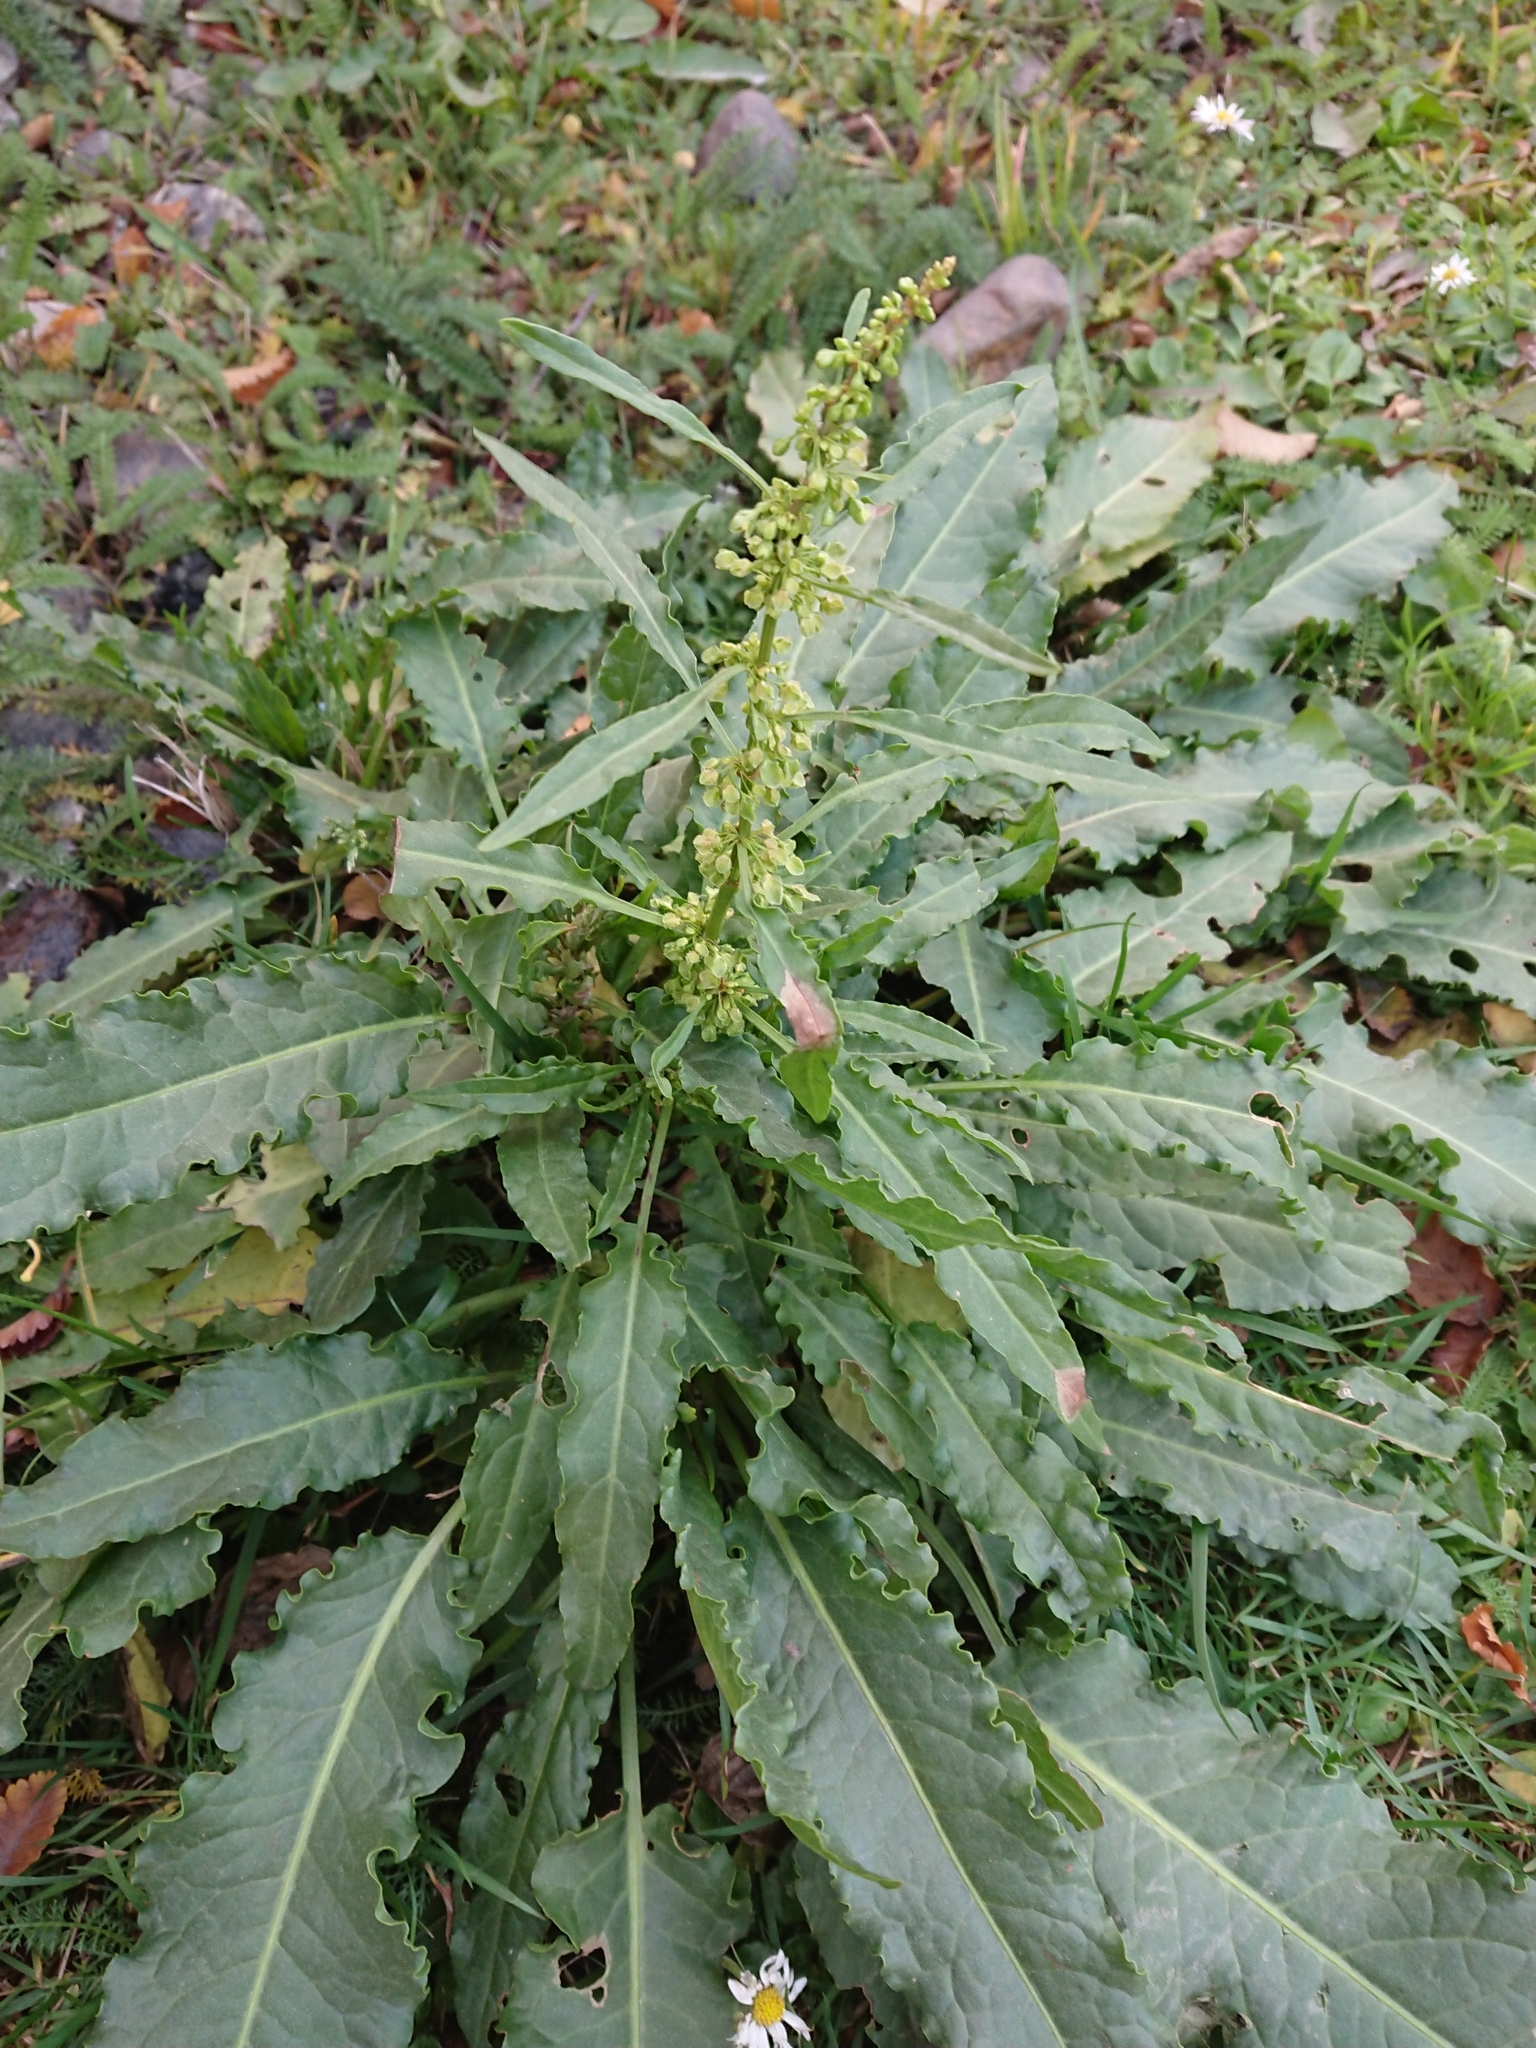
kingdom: Plantae
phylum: Tracheophyta
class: Magnoliopsida
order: Caryophyllales
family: Polygonaceae
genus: Rumex
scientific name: Rumex crispus
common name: Curled dock
